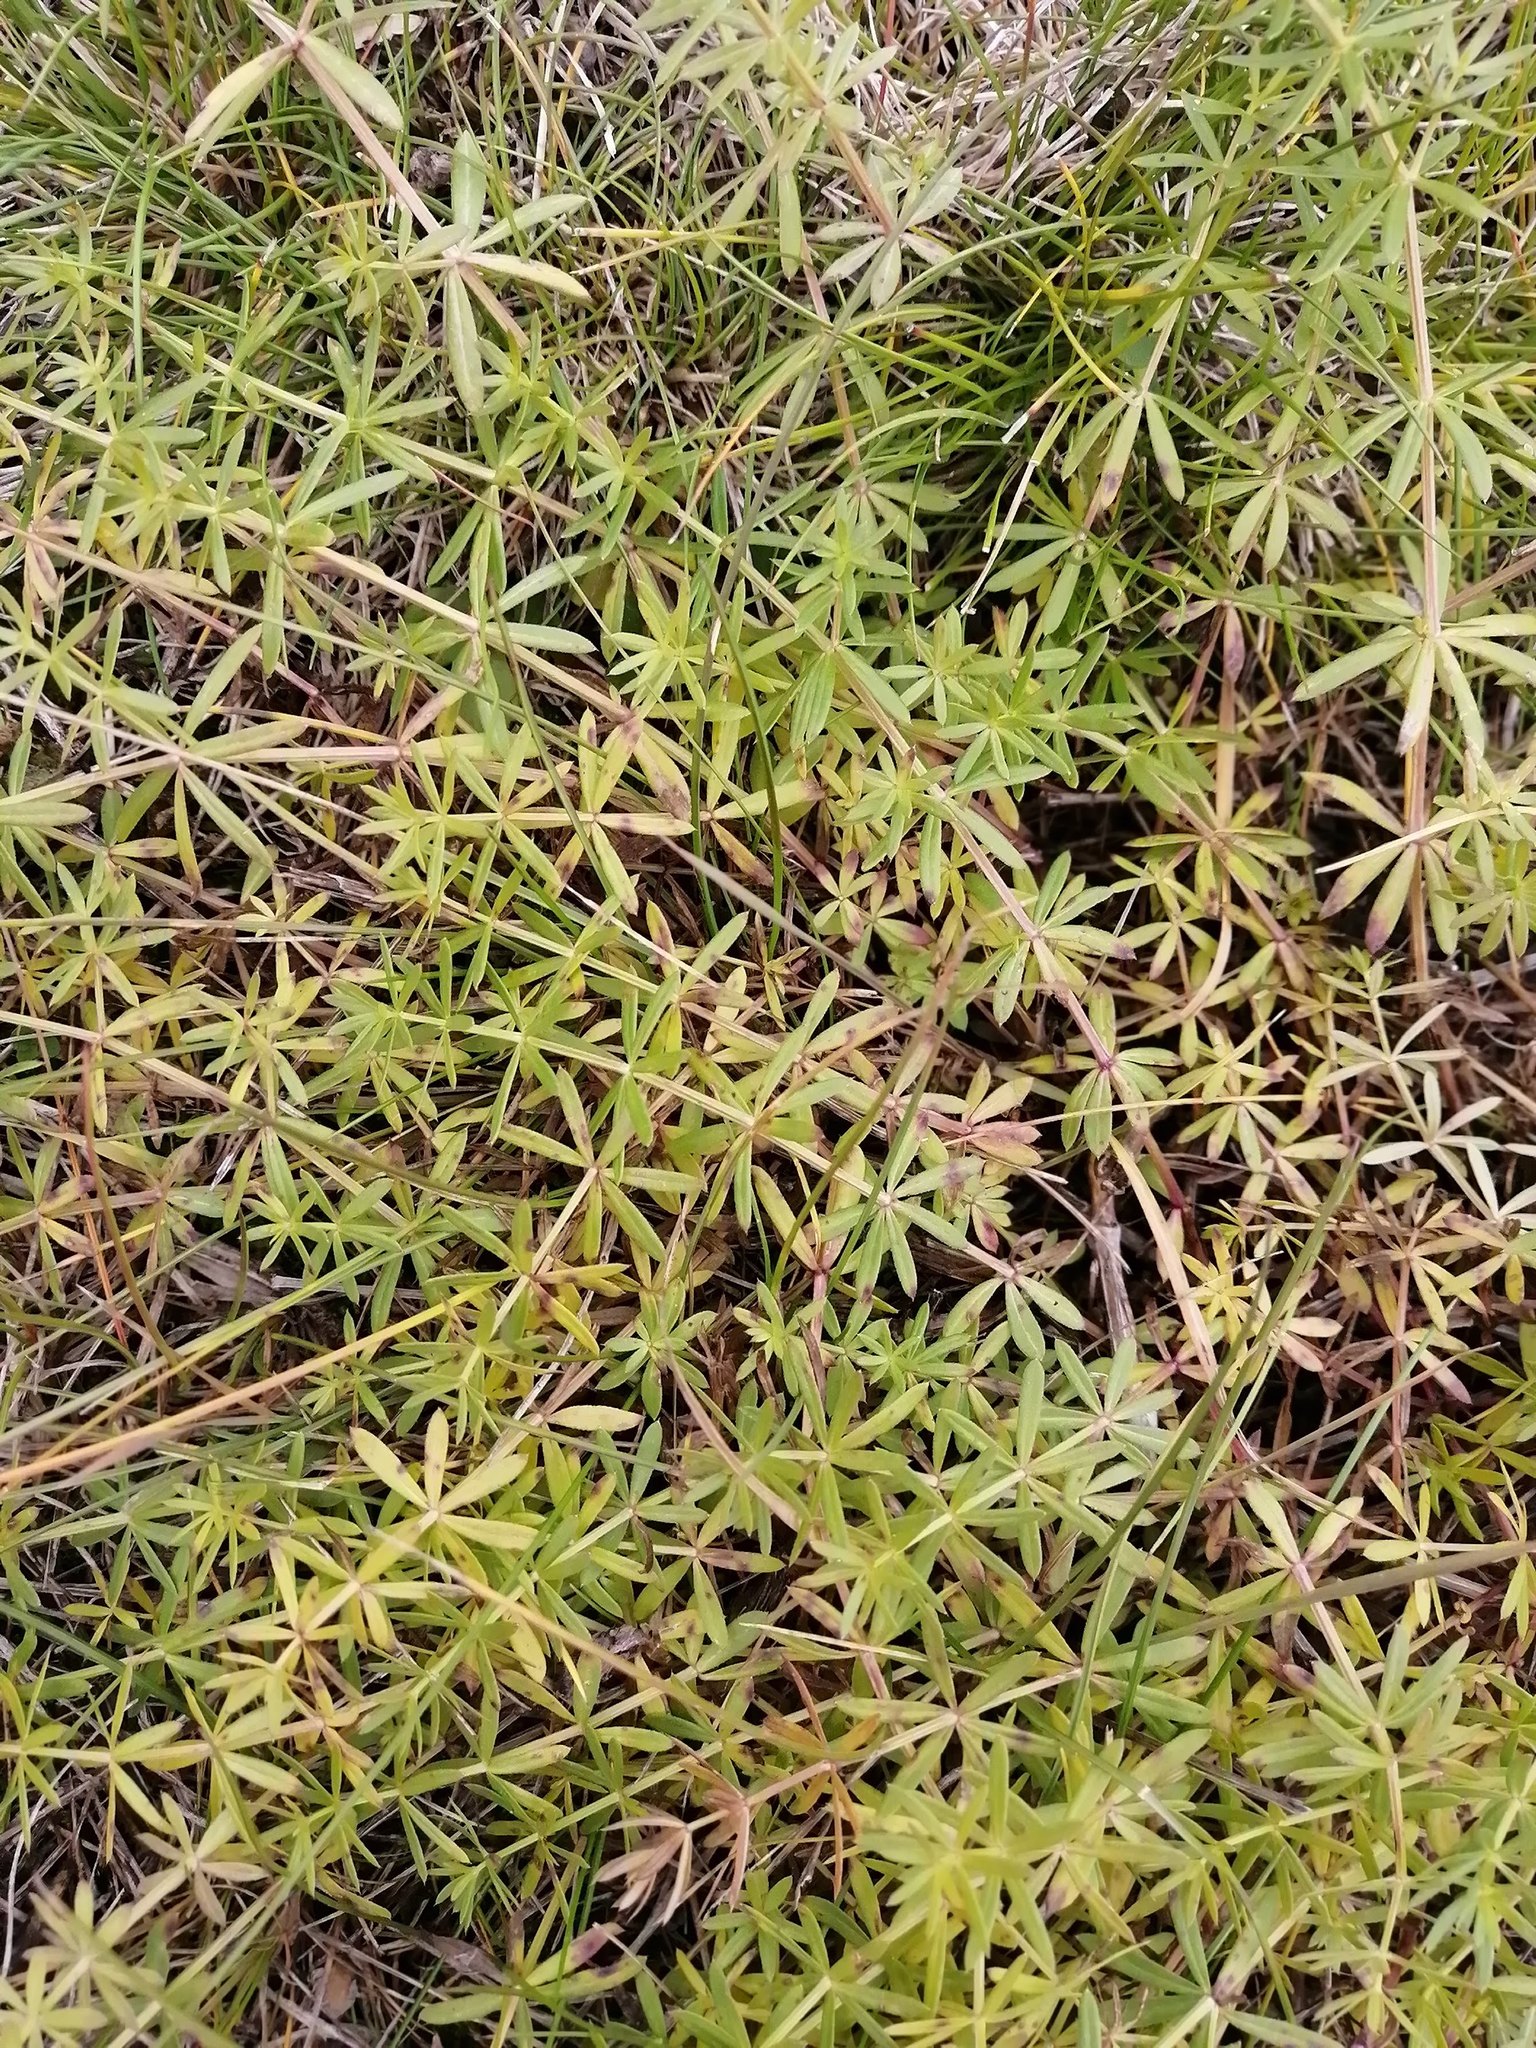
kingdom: Plantae
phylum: Tracheophyta
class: Magnoliopsida
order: Gentianales
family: Rubiaceae
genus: Galium
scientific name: Galium mollugo
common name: Hedge bedstraw
